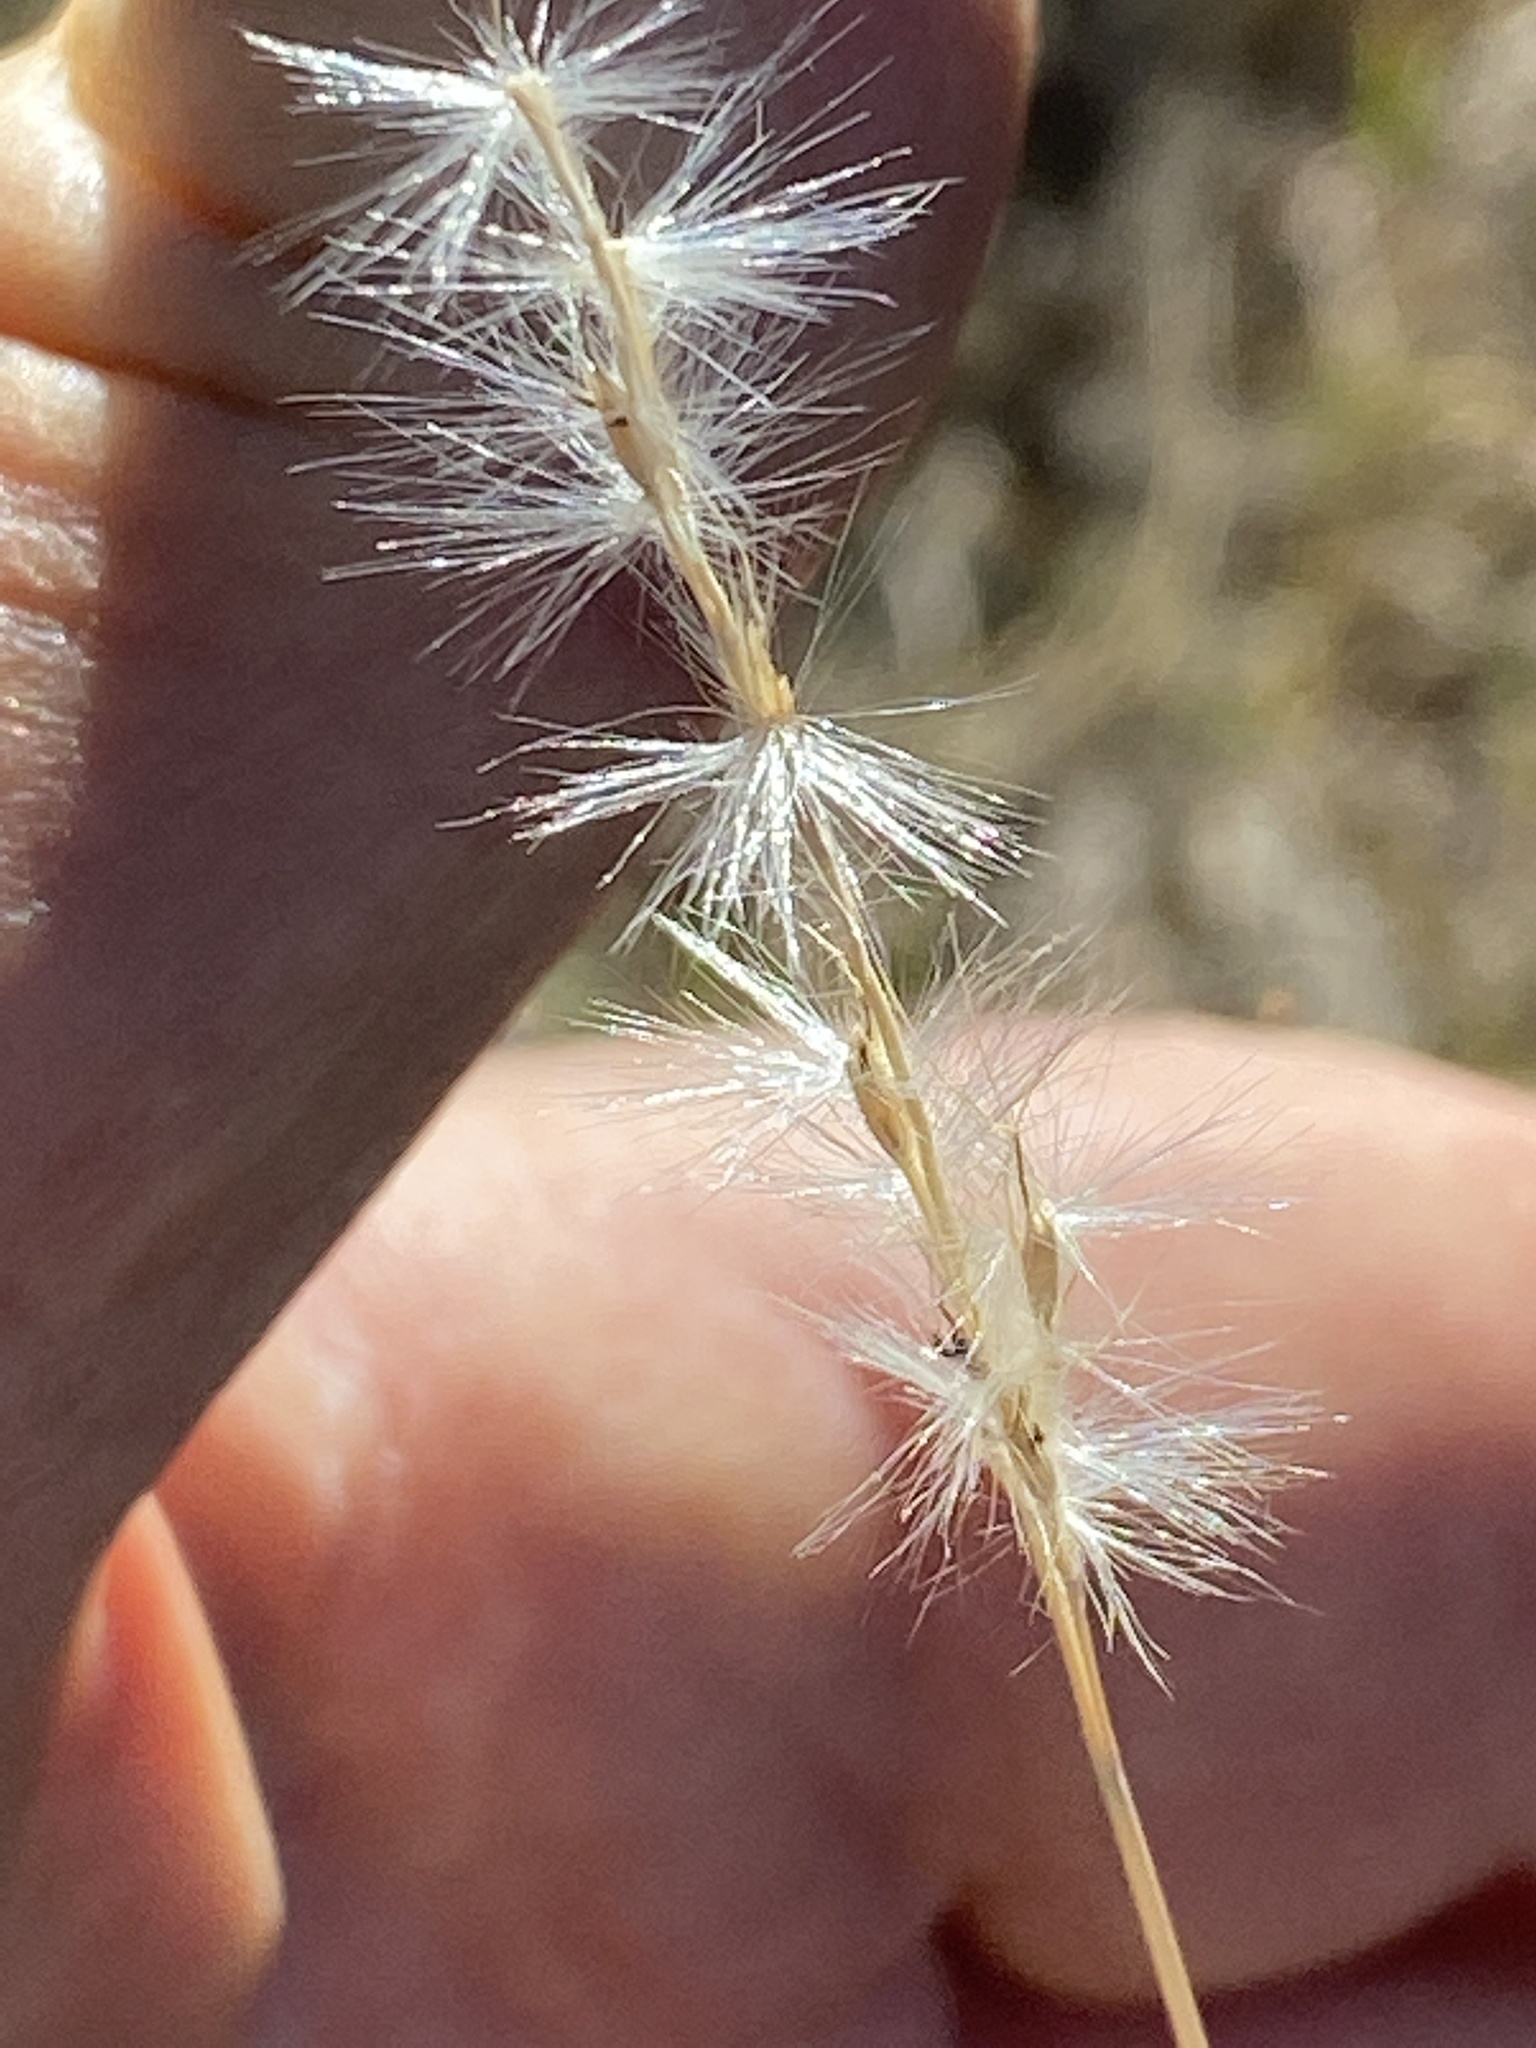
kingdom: Plantae
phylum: Tracheophyta
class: Liliopsida
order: Poales
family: Poaceae
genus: Bothriochloa
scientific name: Bothriochloa torreyana
